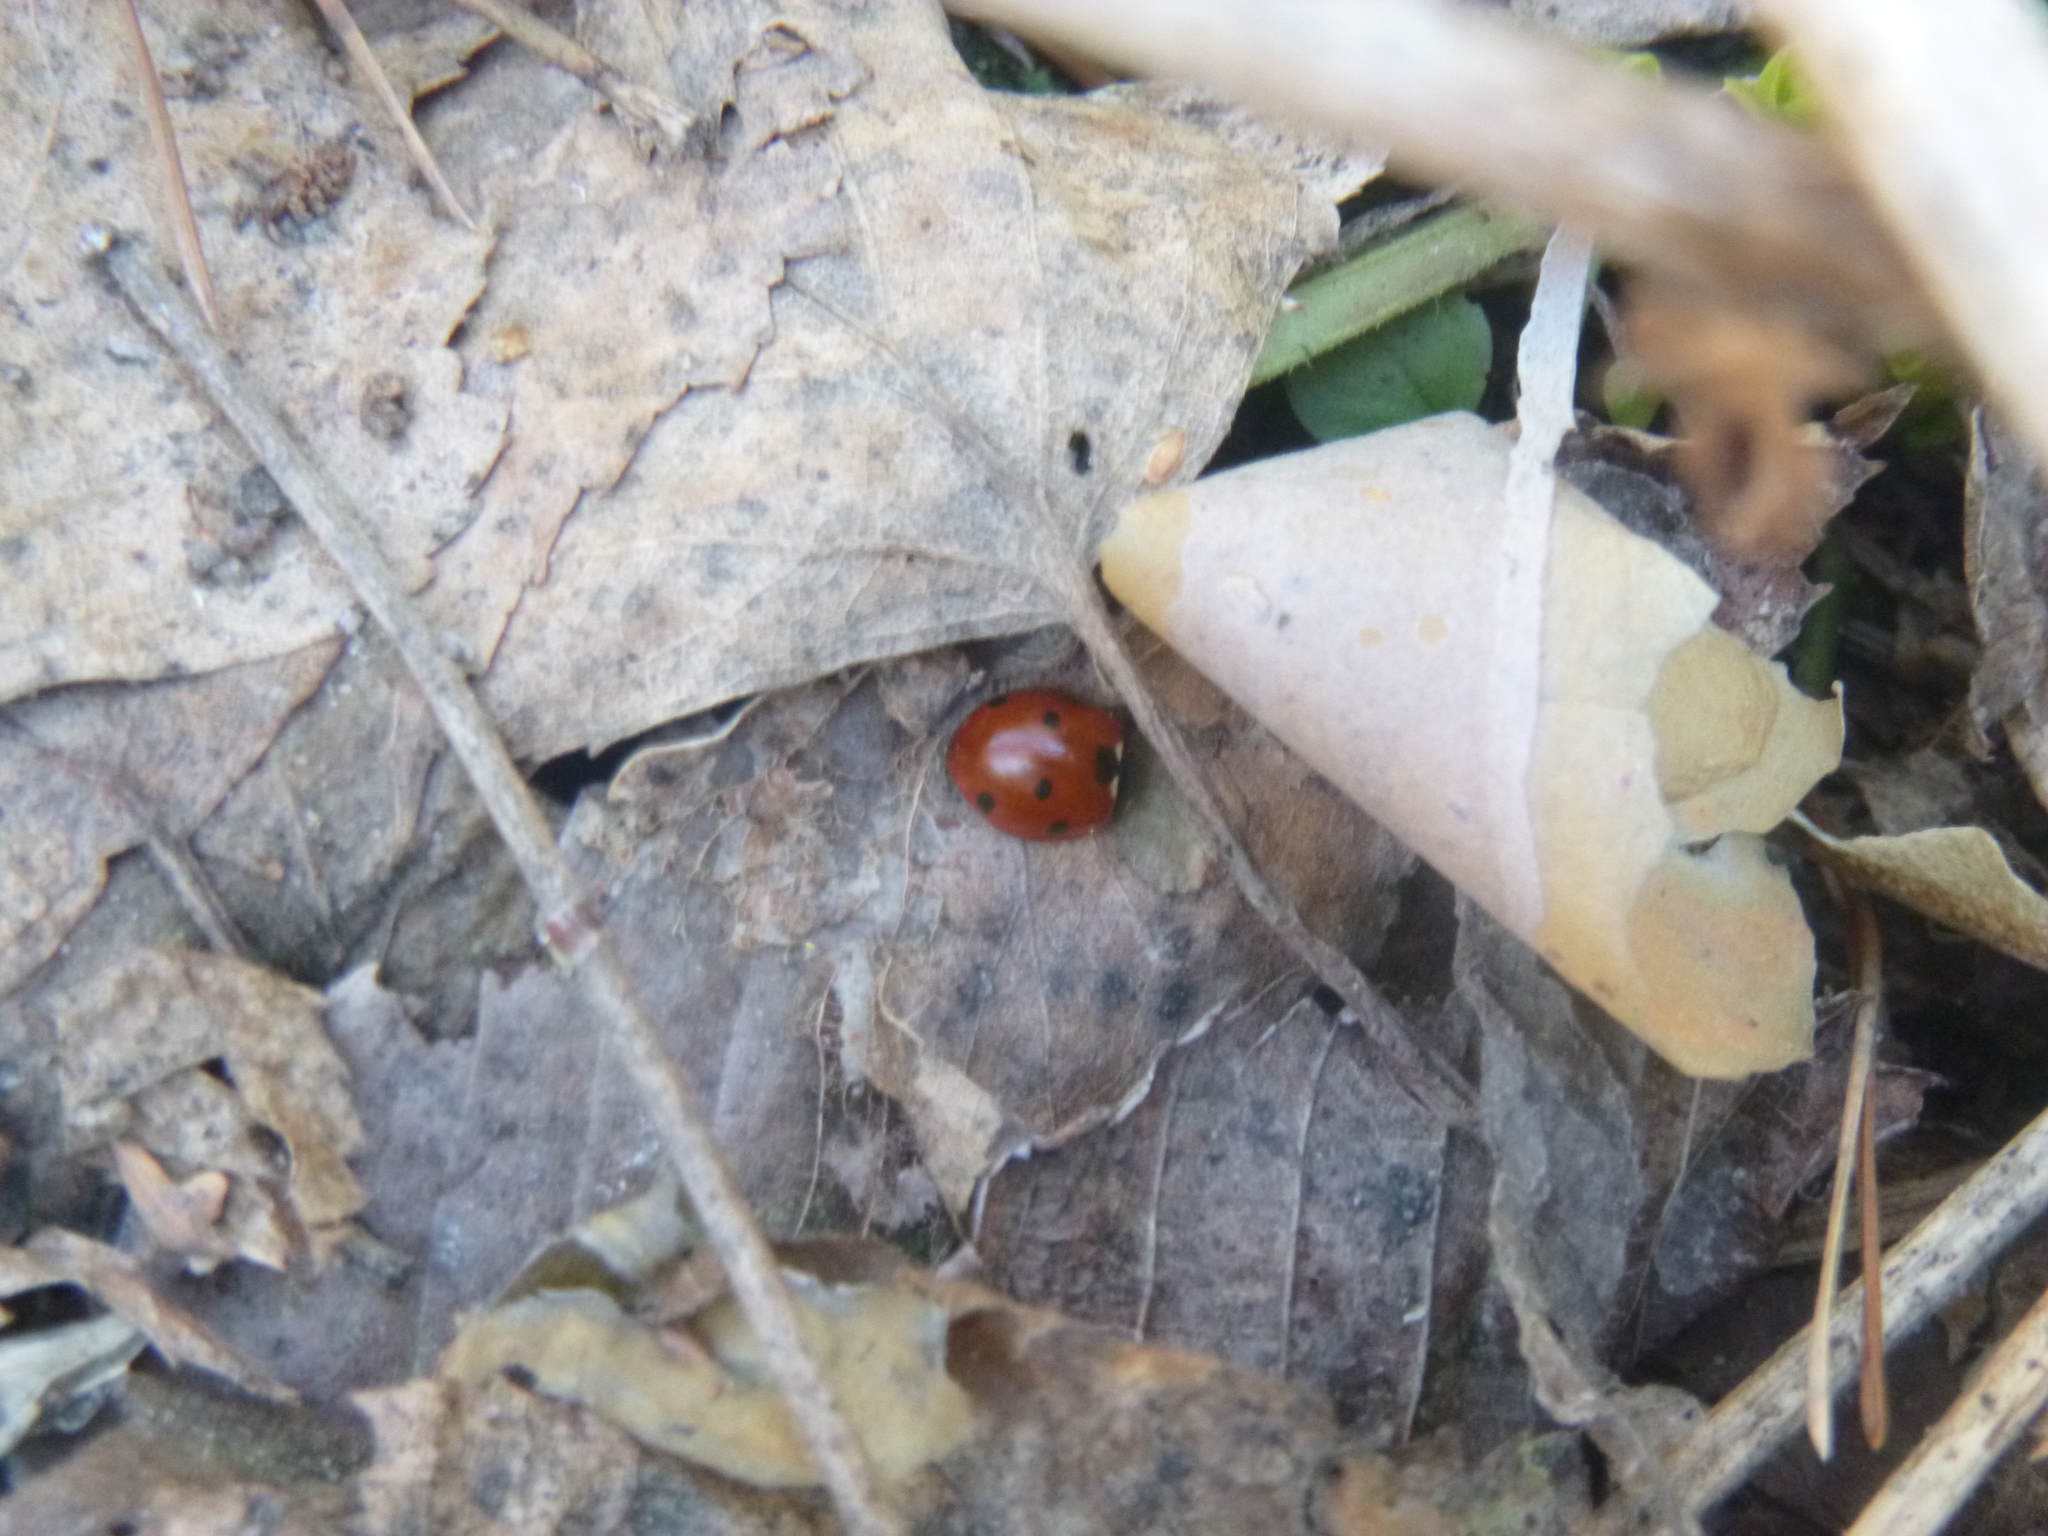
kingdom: Animalia
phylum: Arthropoda
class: Insecta
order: Coleoptera
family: Coccinellidae
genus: Coccinella
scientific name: Coccinella septempunctata
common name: Sevenspotted lady beetle
